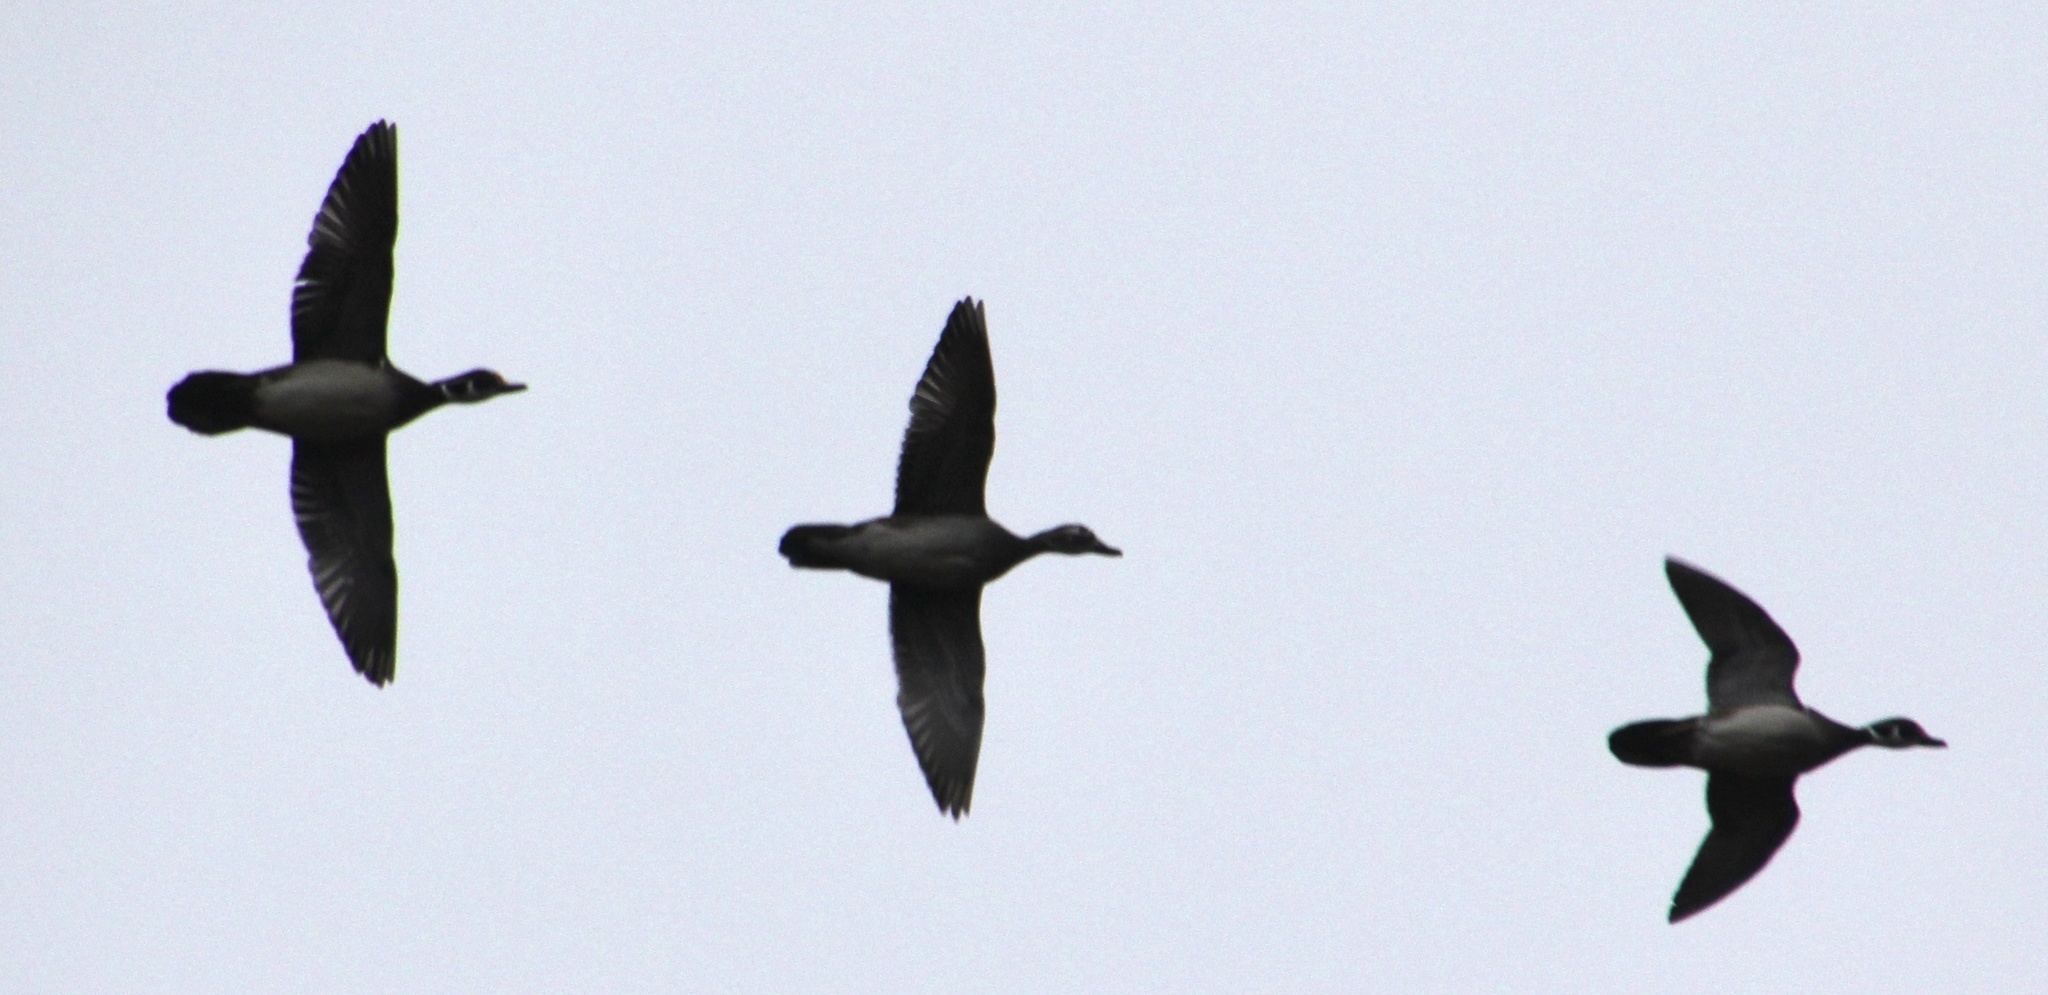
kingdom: Animalia
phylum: Chordata
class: Aves
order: Anseriformes
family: Anatidae
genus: Aix
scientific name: Aix sponsa
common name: Wood duck
